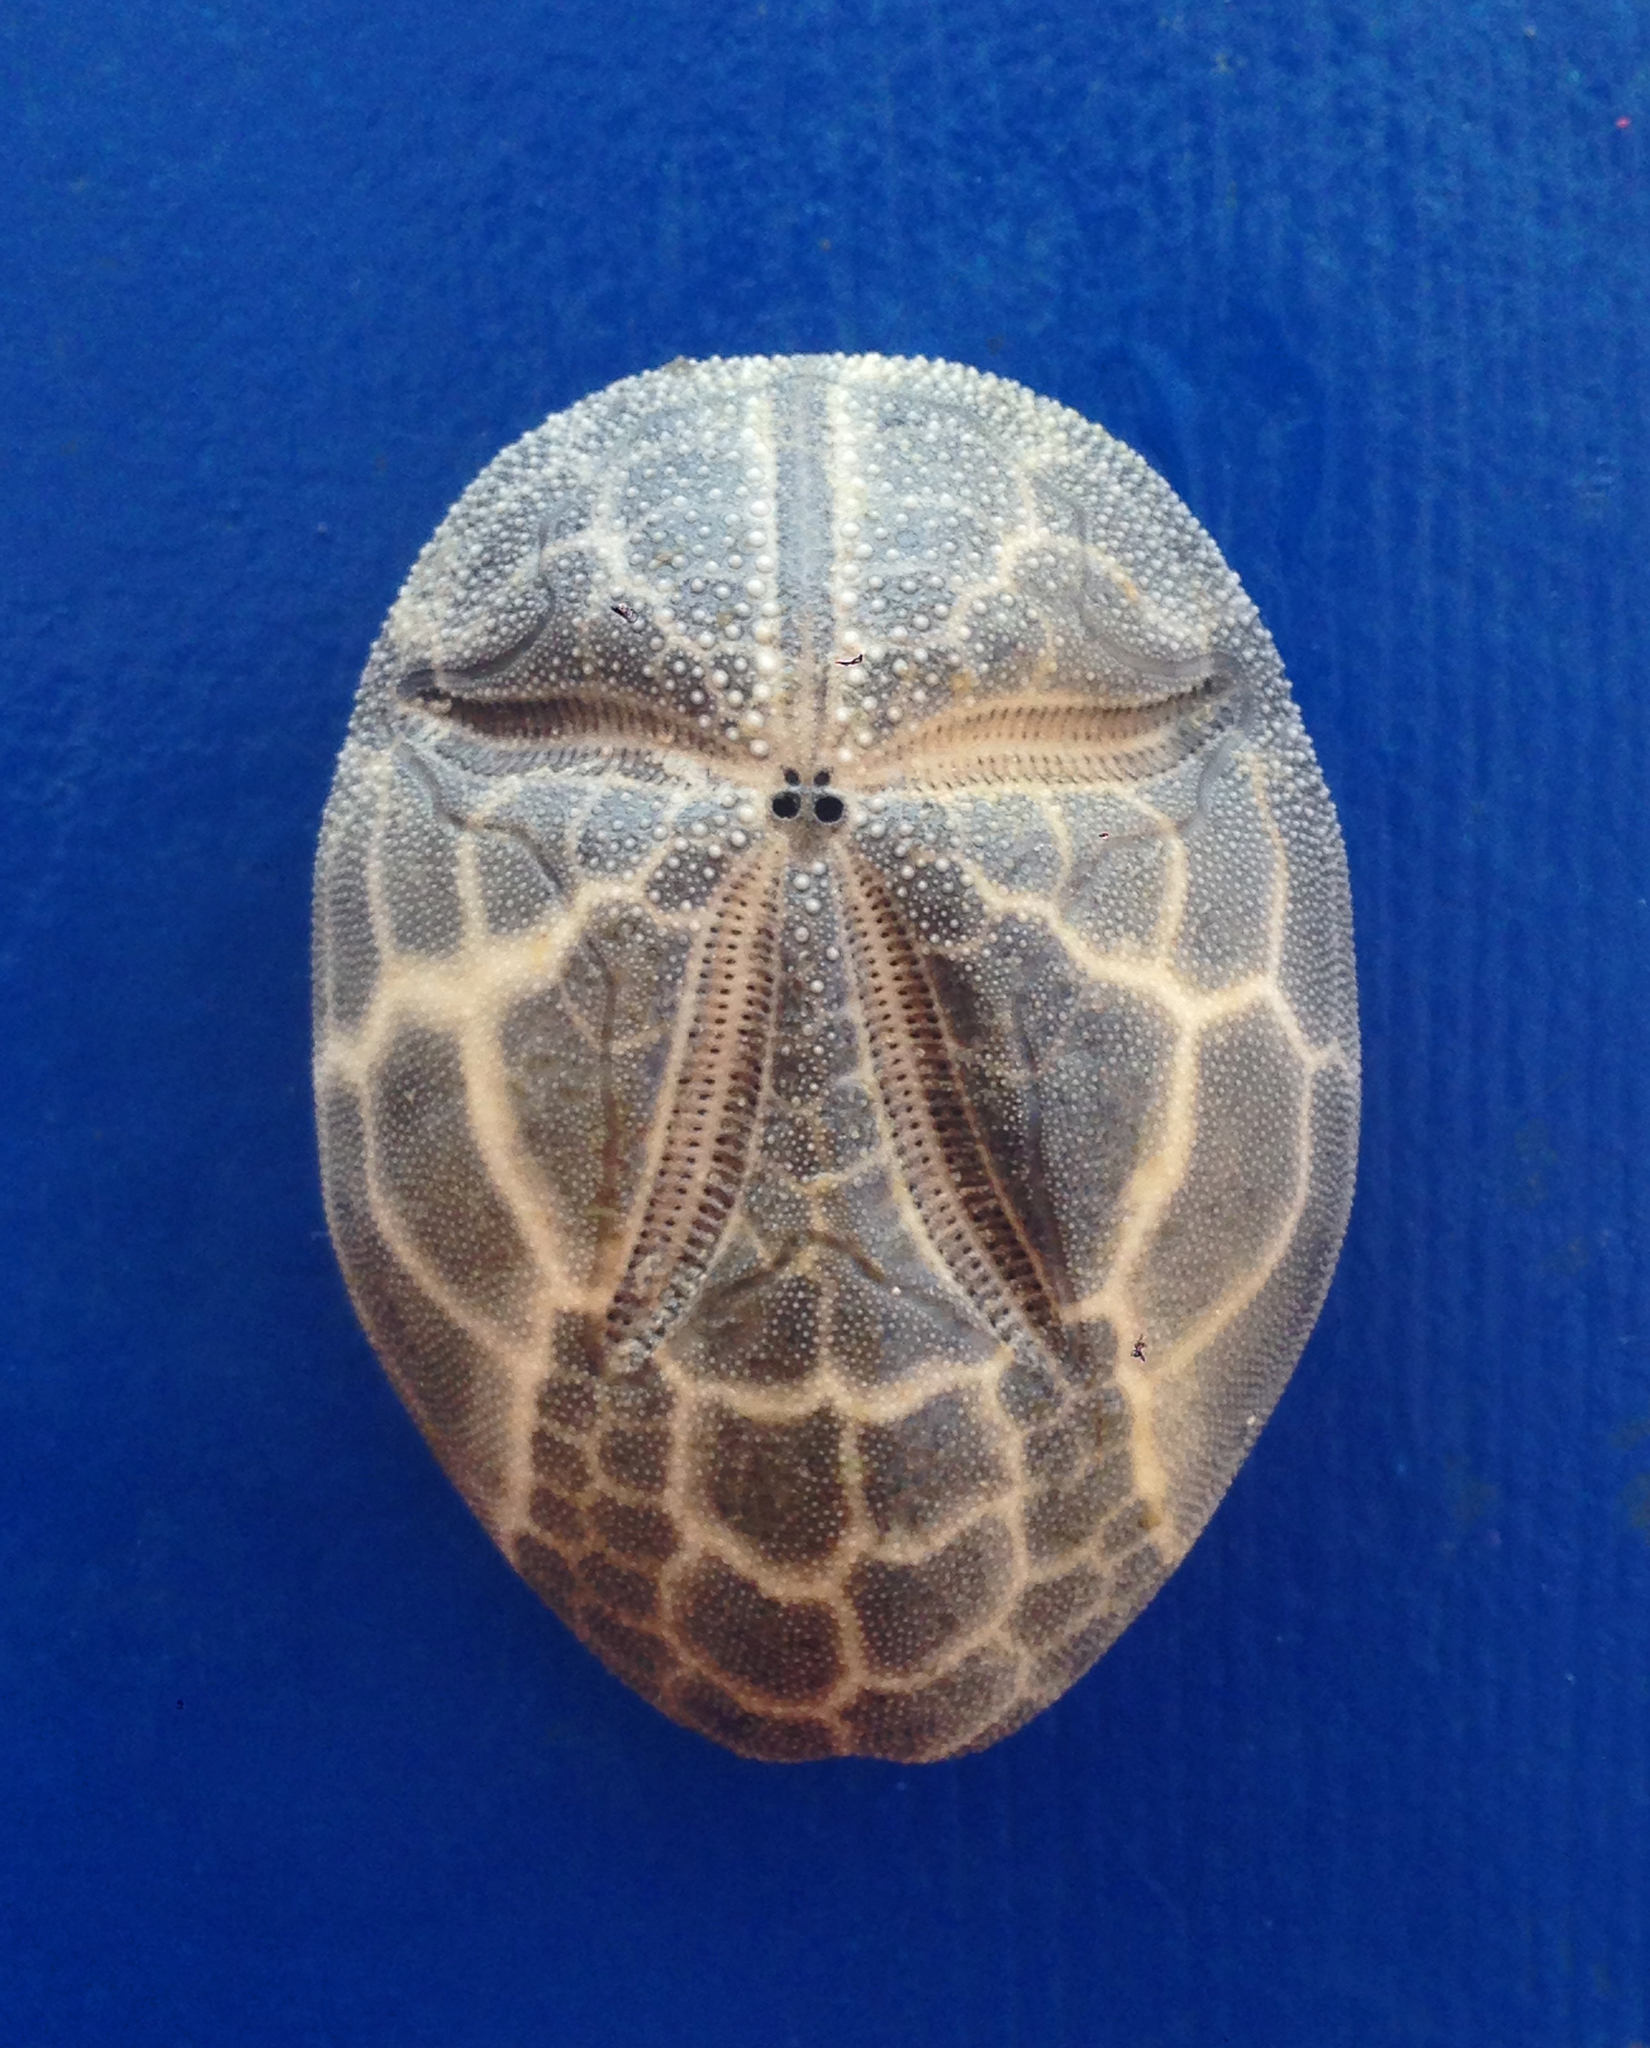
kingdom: Animalia
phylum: Echinodermata
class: Echinoidea
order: Spatangoida
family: Brissidae
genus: Brissus
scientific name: Brissus unicolor
